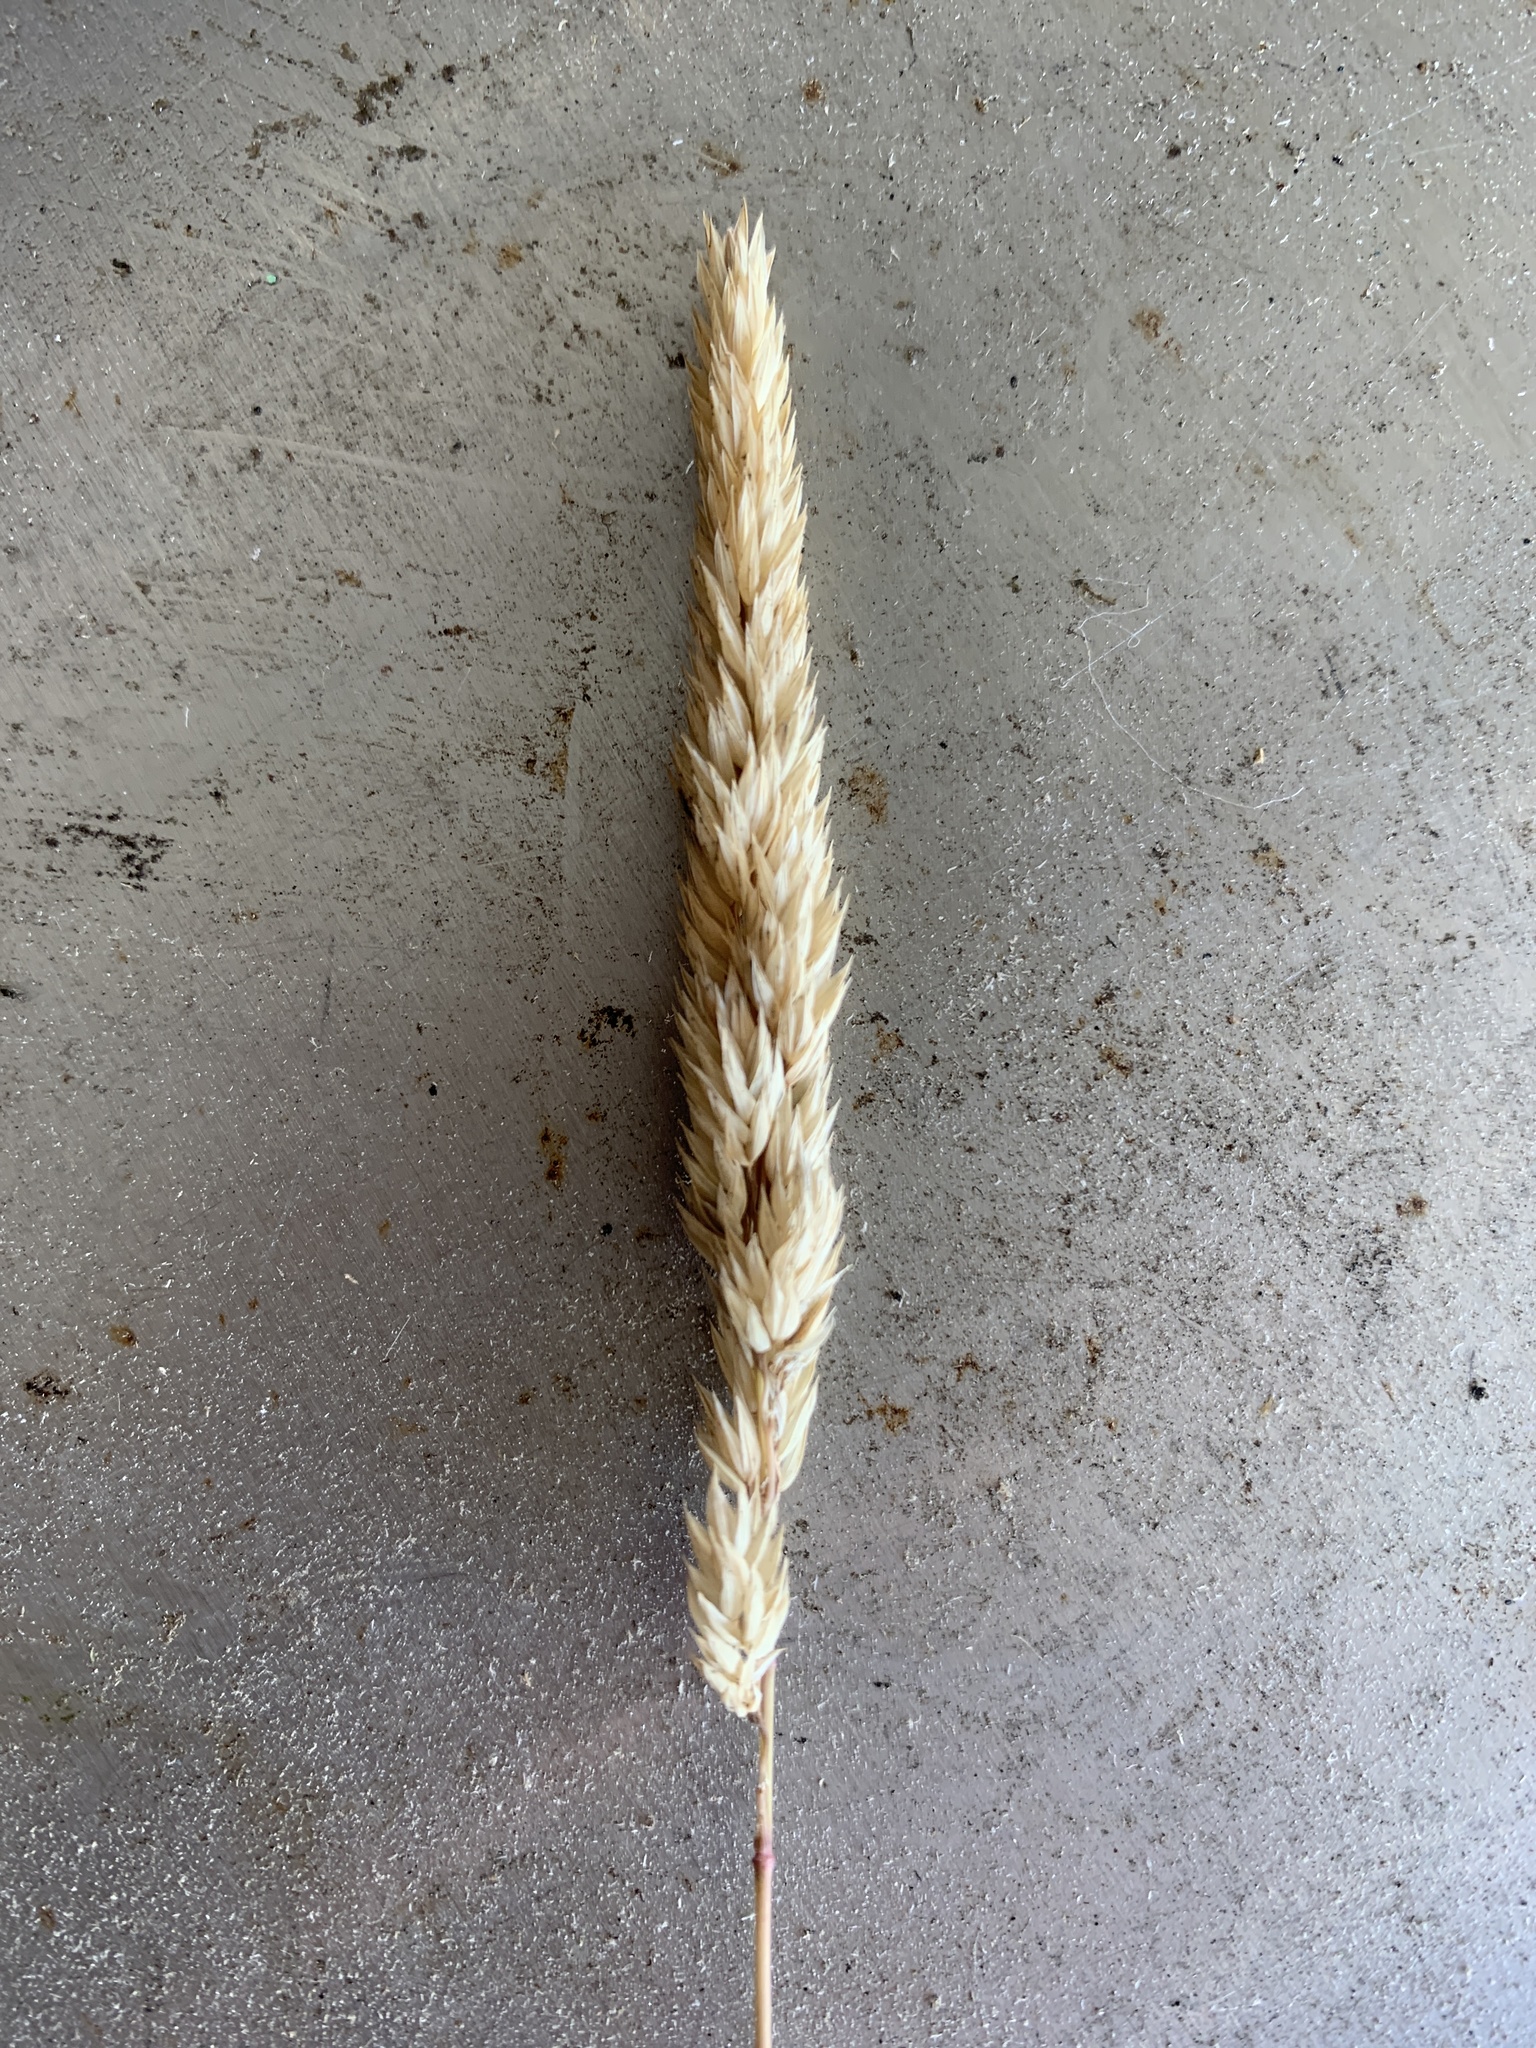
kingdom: Plantae
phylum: Tracheophyta
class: Liliopsida
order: Poales
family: Poaceae
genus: Phalaris
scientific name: Phalaris arundinacea
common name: Reed canary-grass
